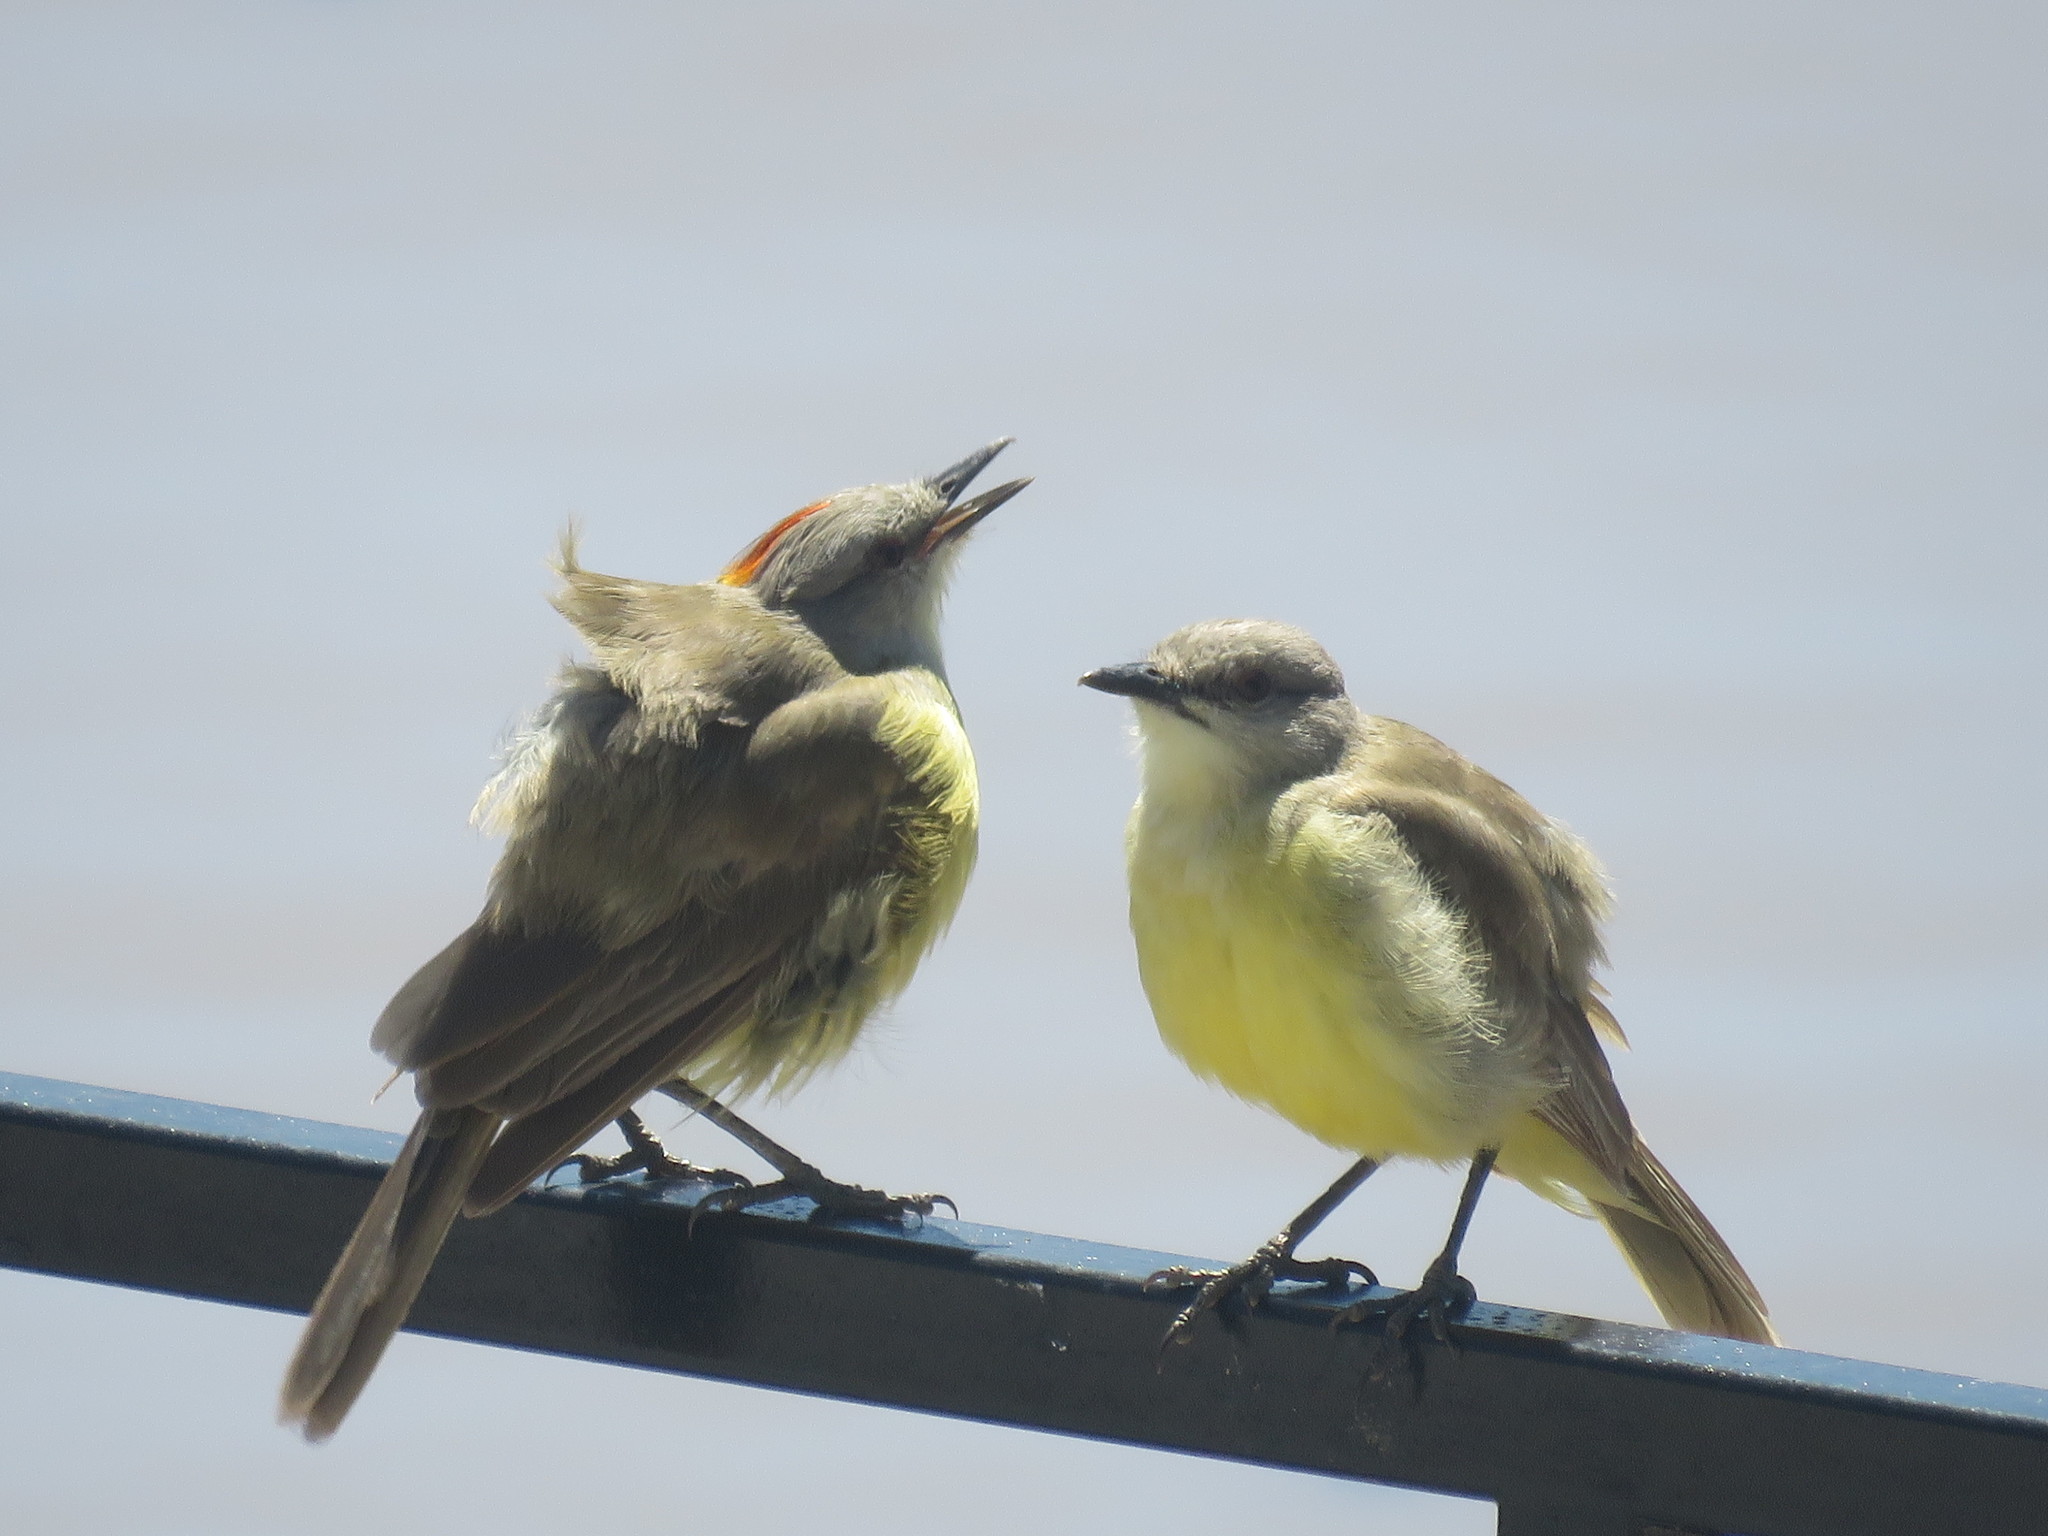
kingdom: Animalia
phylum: Chordata
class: Aves
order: Passeriformes
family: Tyrannidae
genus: Machetornis
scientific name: Machetornis rixosa
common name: Cattle tyrant
